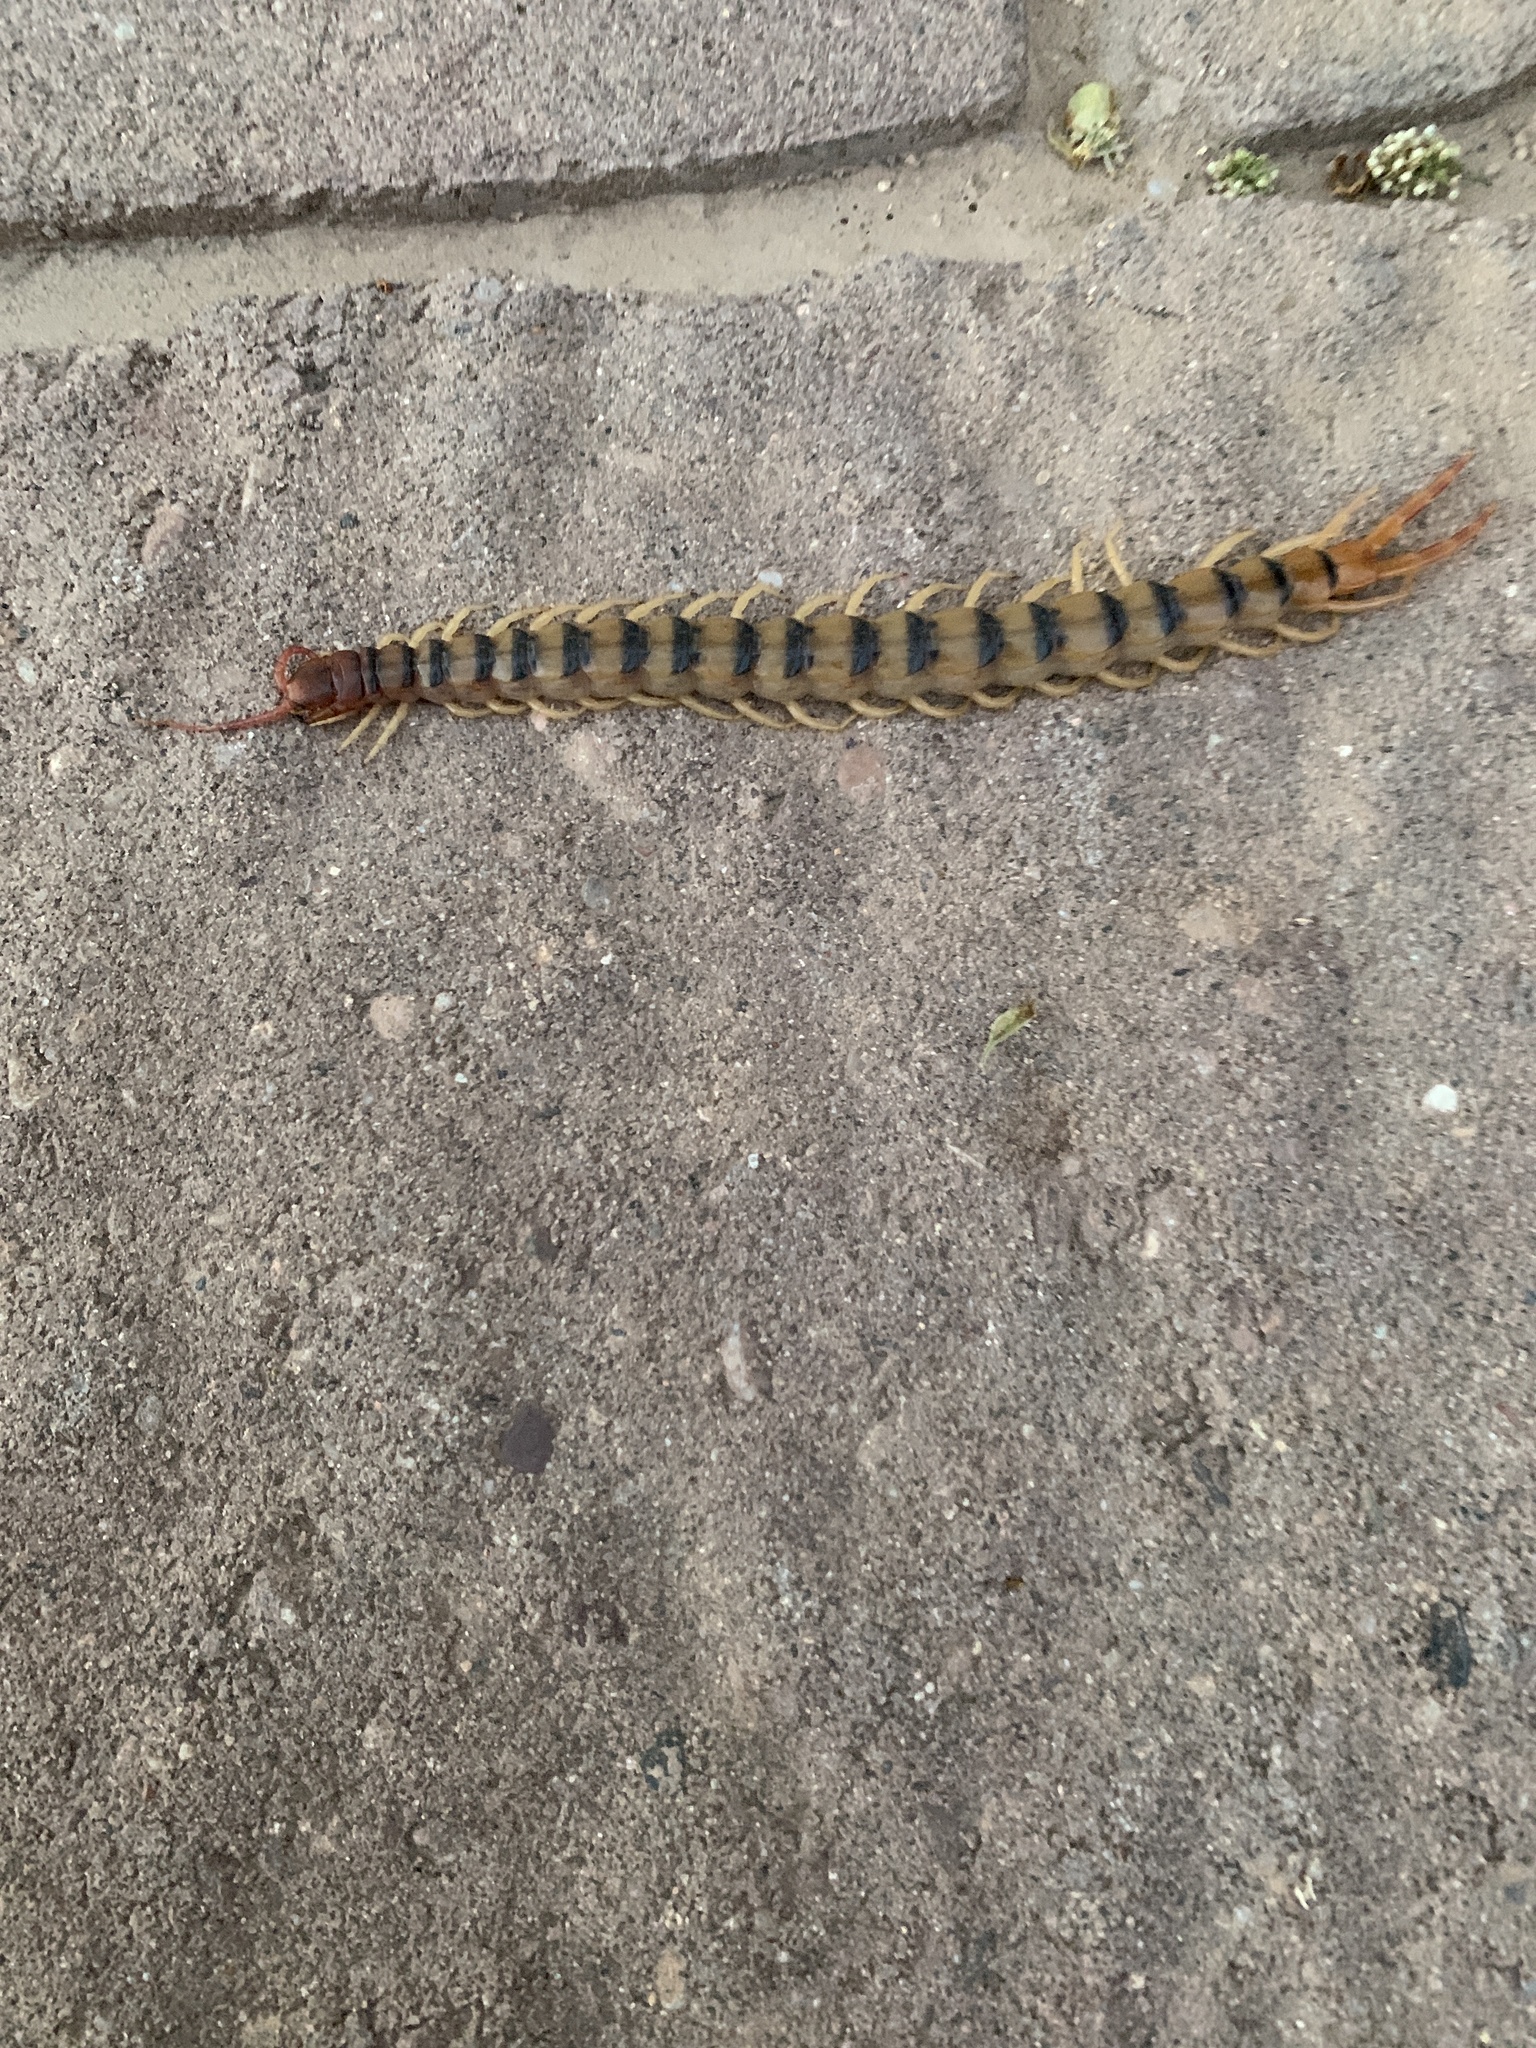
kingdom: Animalia
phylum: Arthropoda
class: Chilopoda
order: Scolopendromorpha
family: Scolopendridae
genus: Scolopendra
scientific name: Scolopendra polymorpha
